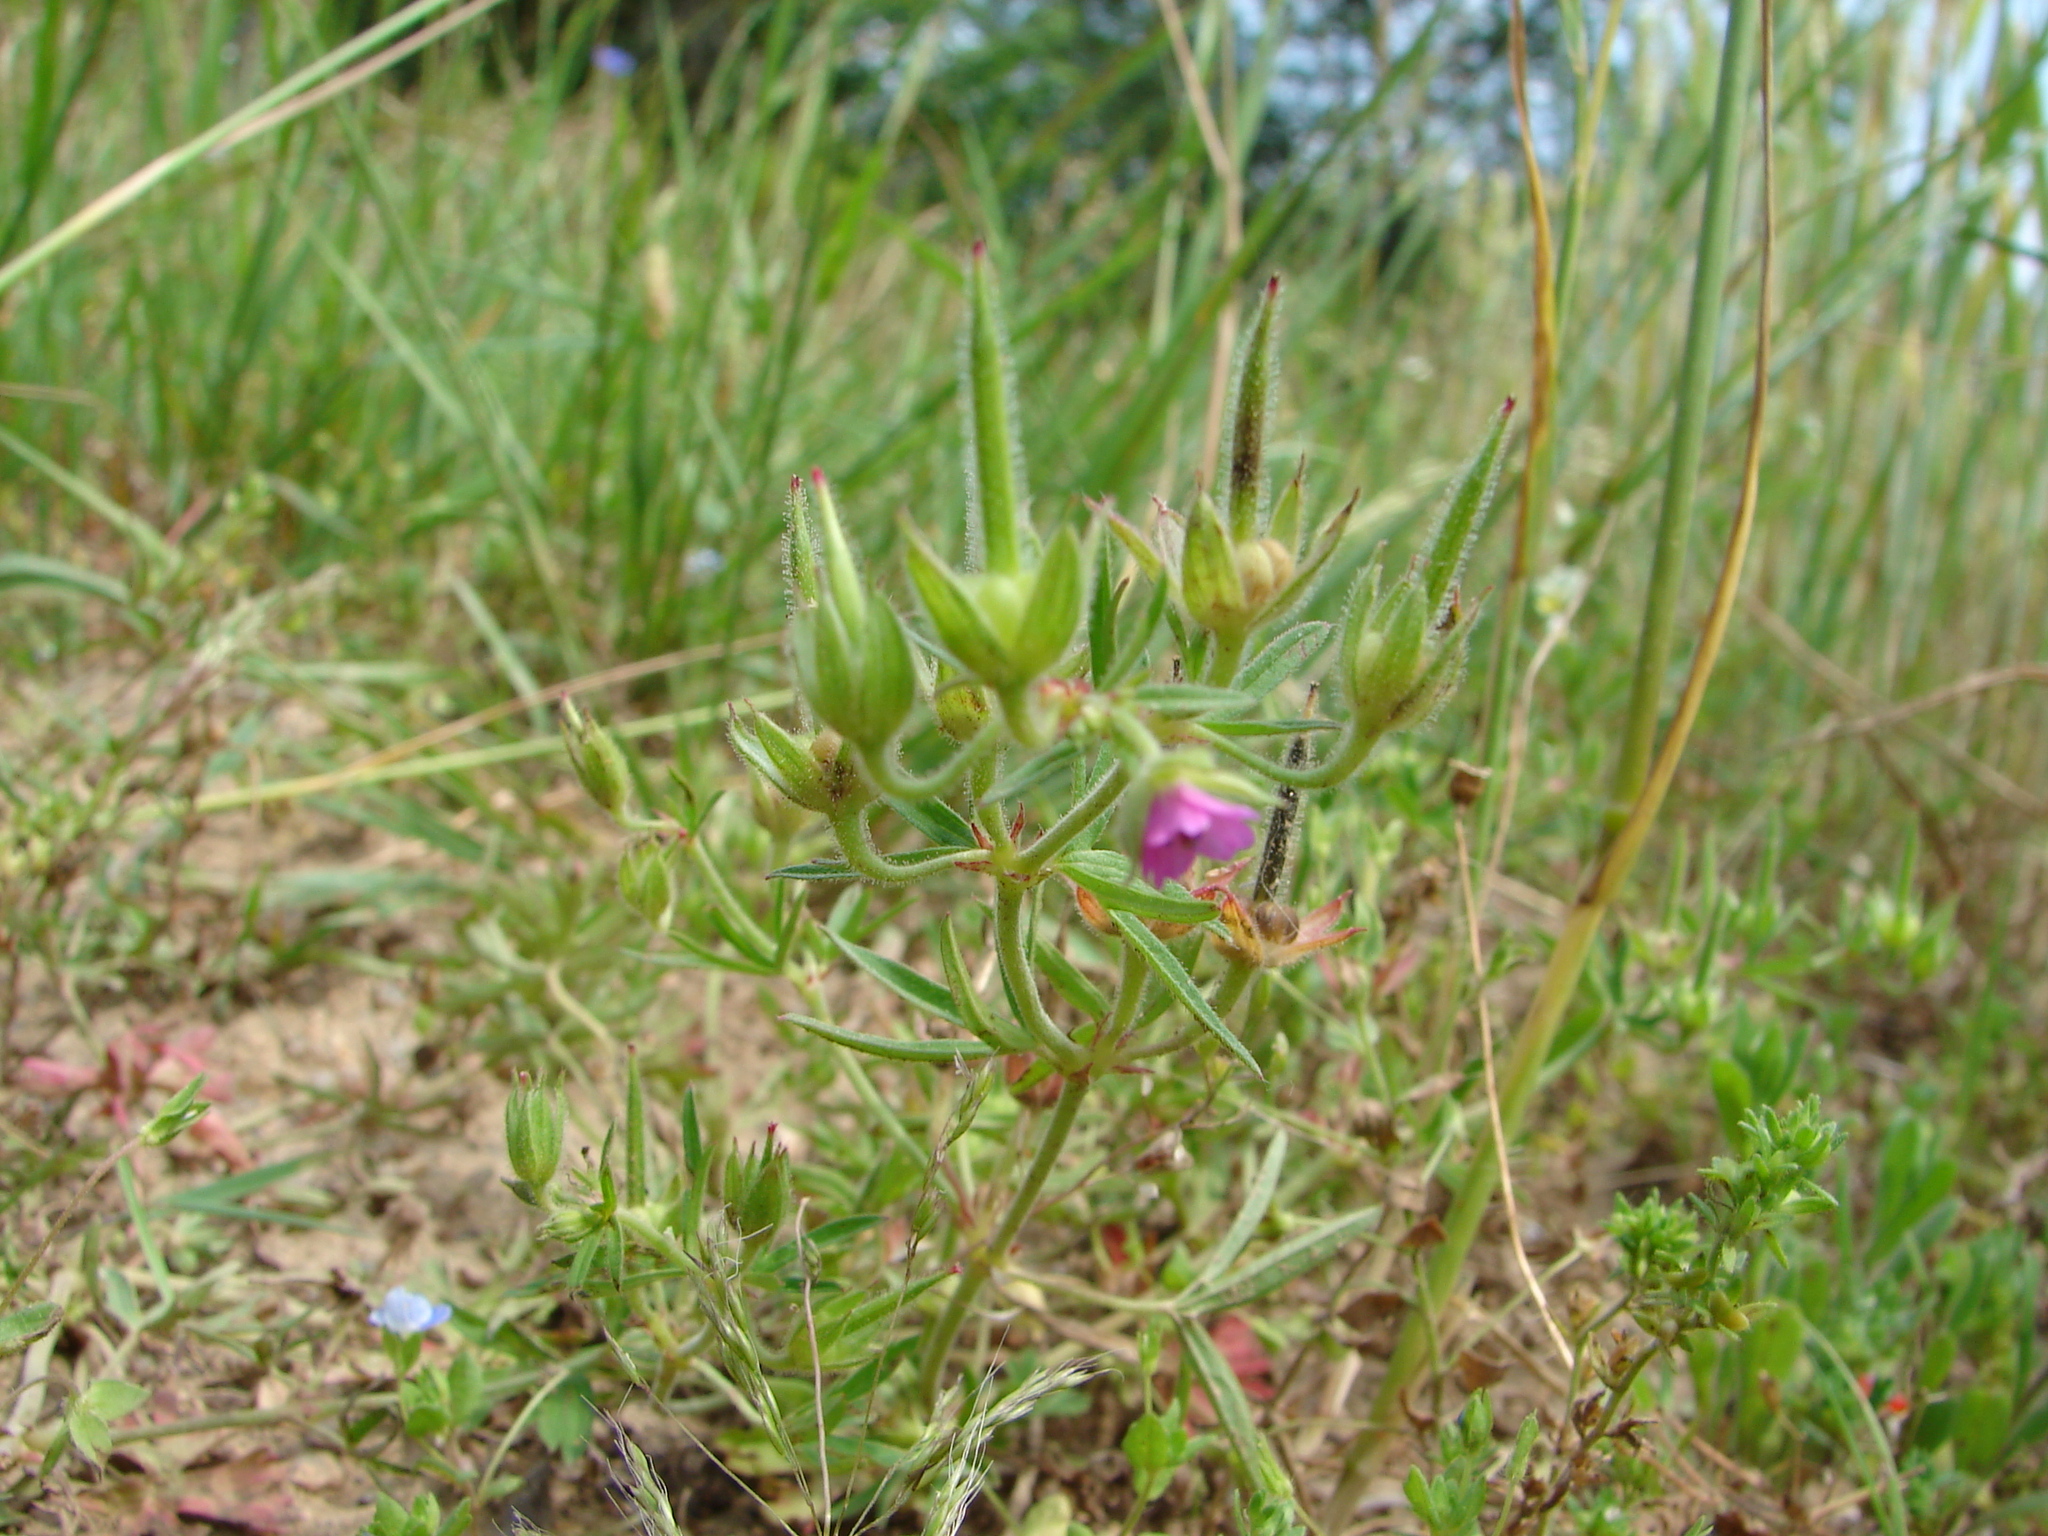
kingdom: Plantae
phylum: Tracheophyta
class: Magnoliopsida
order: Geraniales
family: Geraniaceae
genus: Geranium
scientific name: Geranium dissectum
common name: Cut-leaved crane's-bill
